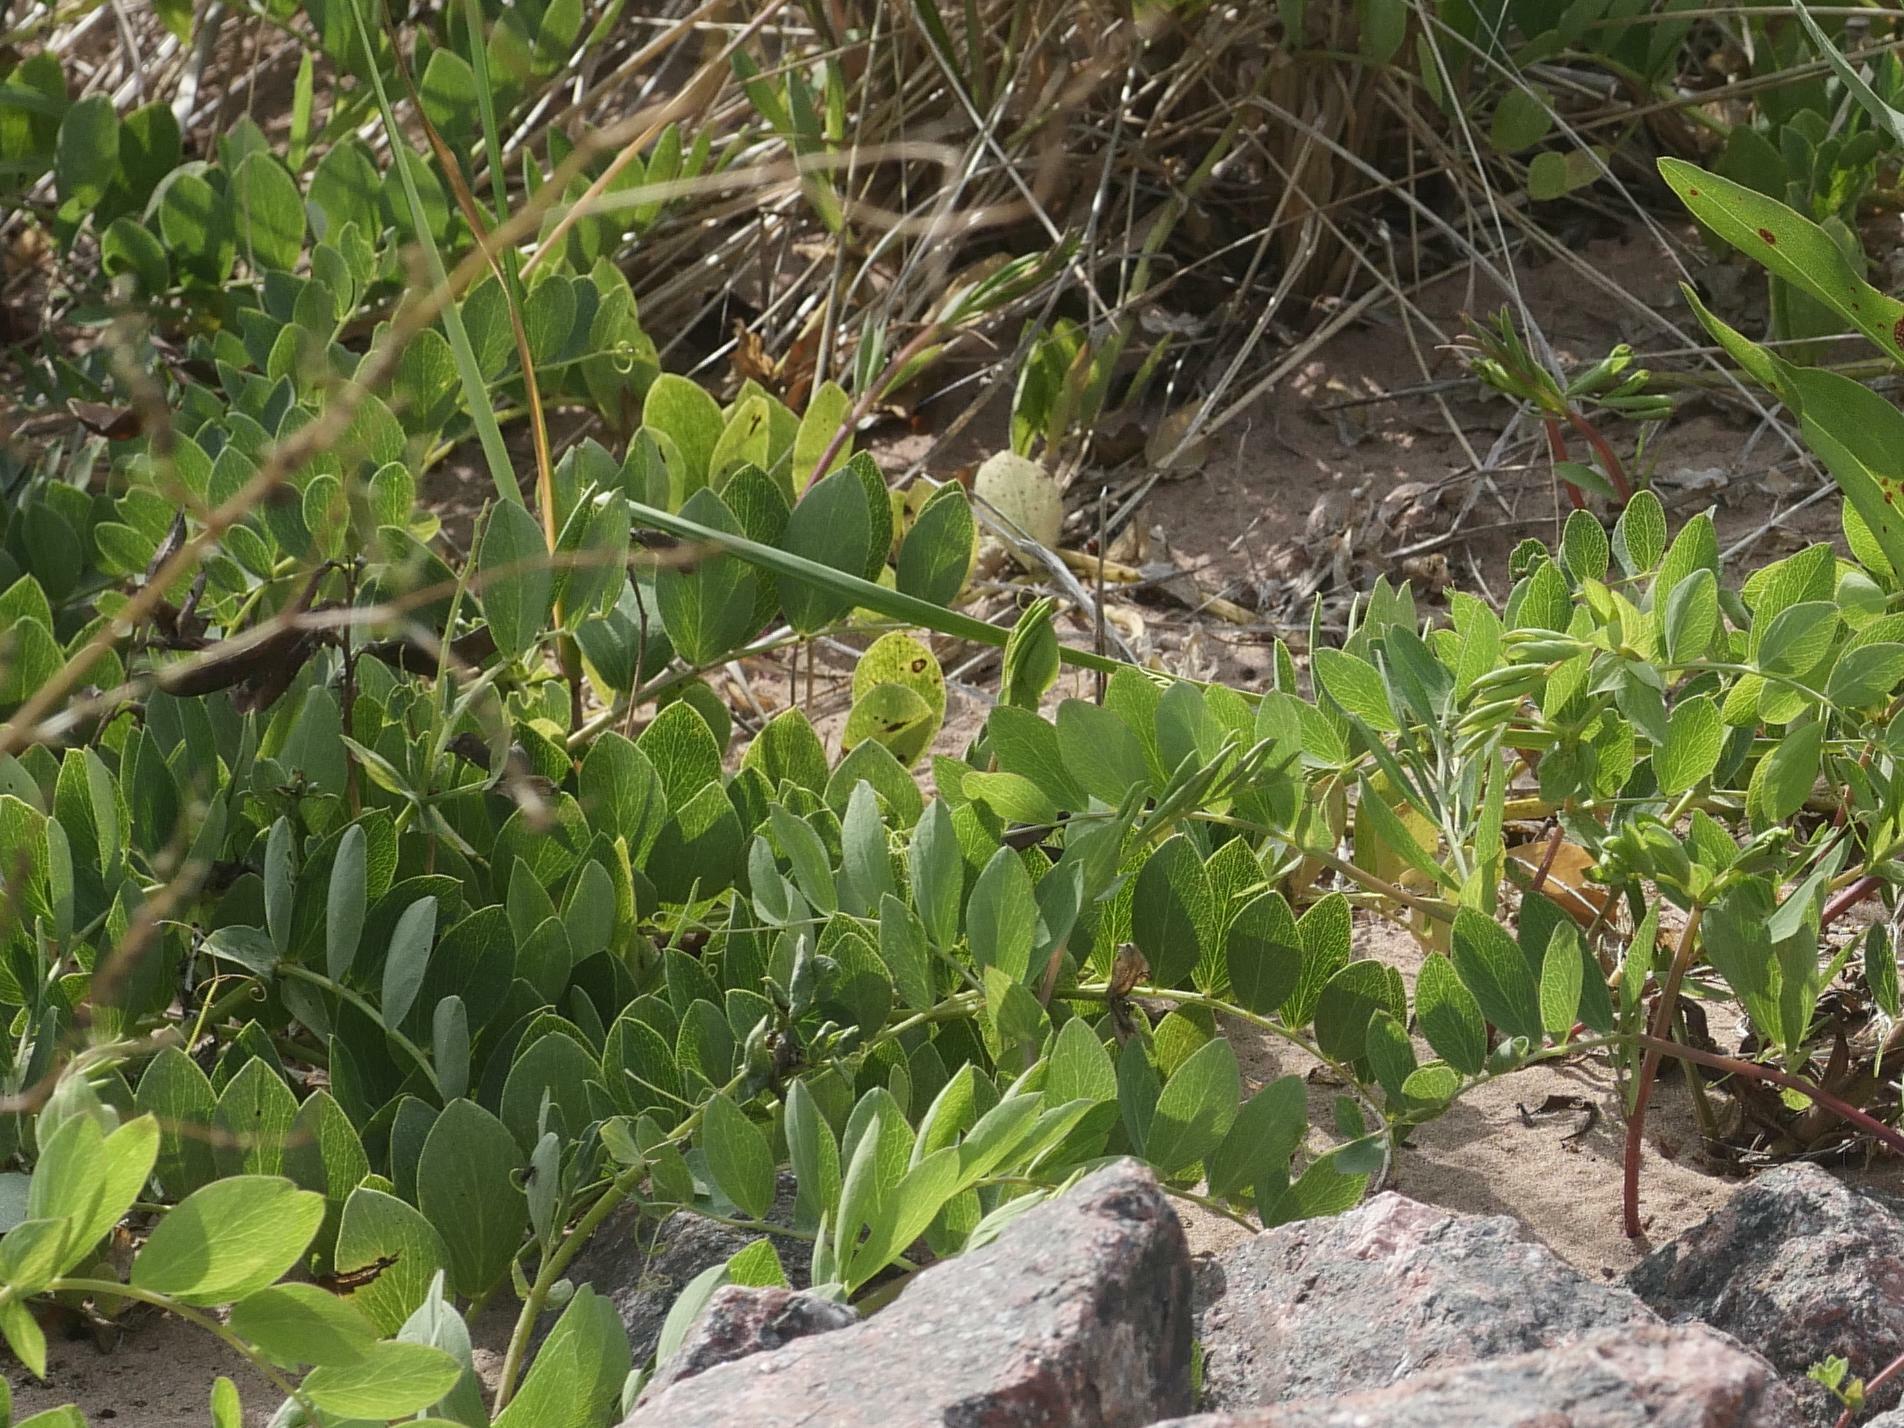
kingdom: Plantae
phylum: Tracheophyta
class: Magnoliopsida
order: Fabales
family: Fabaceae
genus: Lathyrus
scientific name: Lathyrus japonicus
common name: Sea pea
